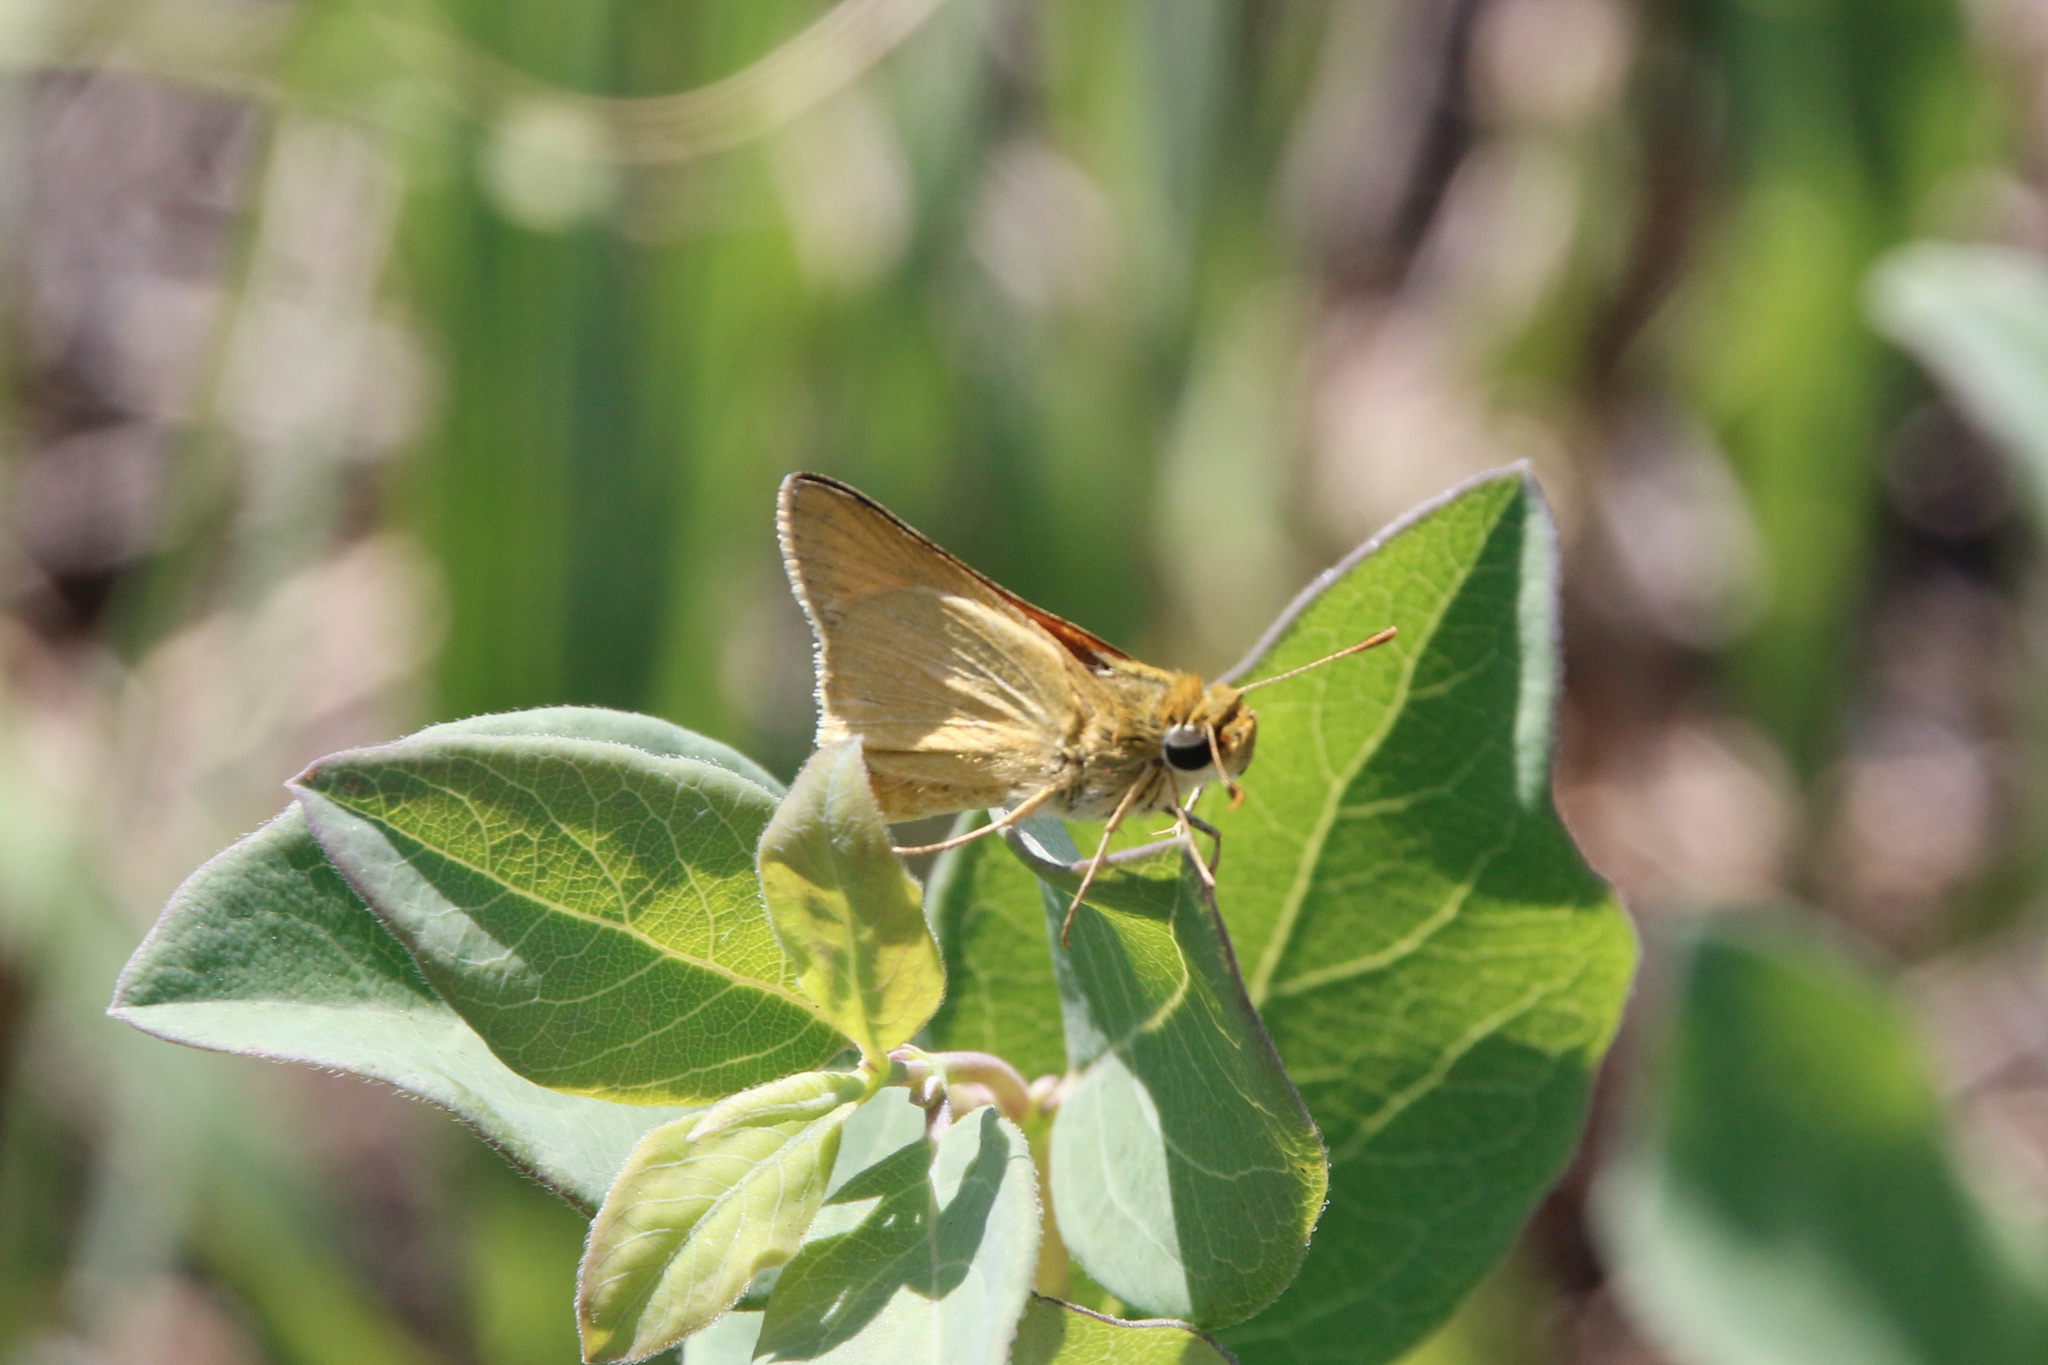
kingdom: Animalia
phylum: Arthropoda
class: Insecta
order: Lepidoptera
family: Hesperiidae
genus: Atrytone
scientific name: Atrytone delaware
